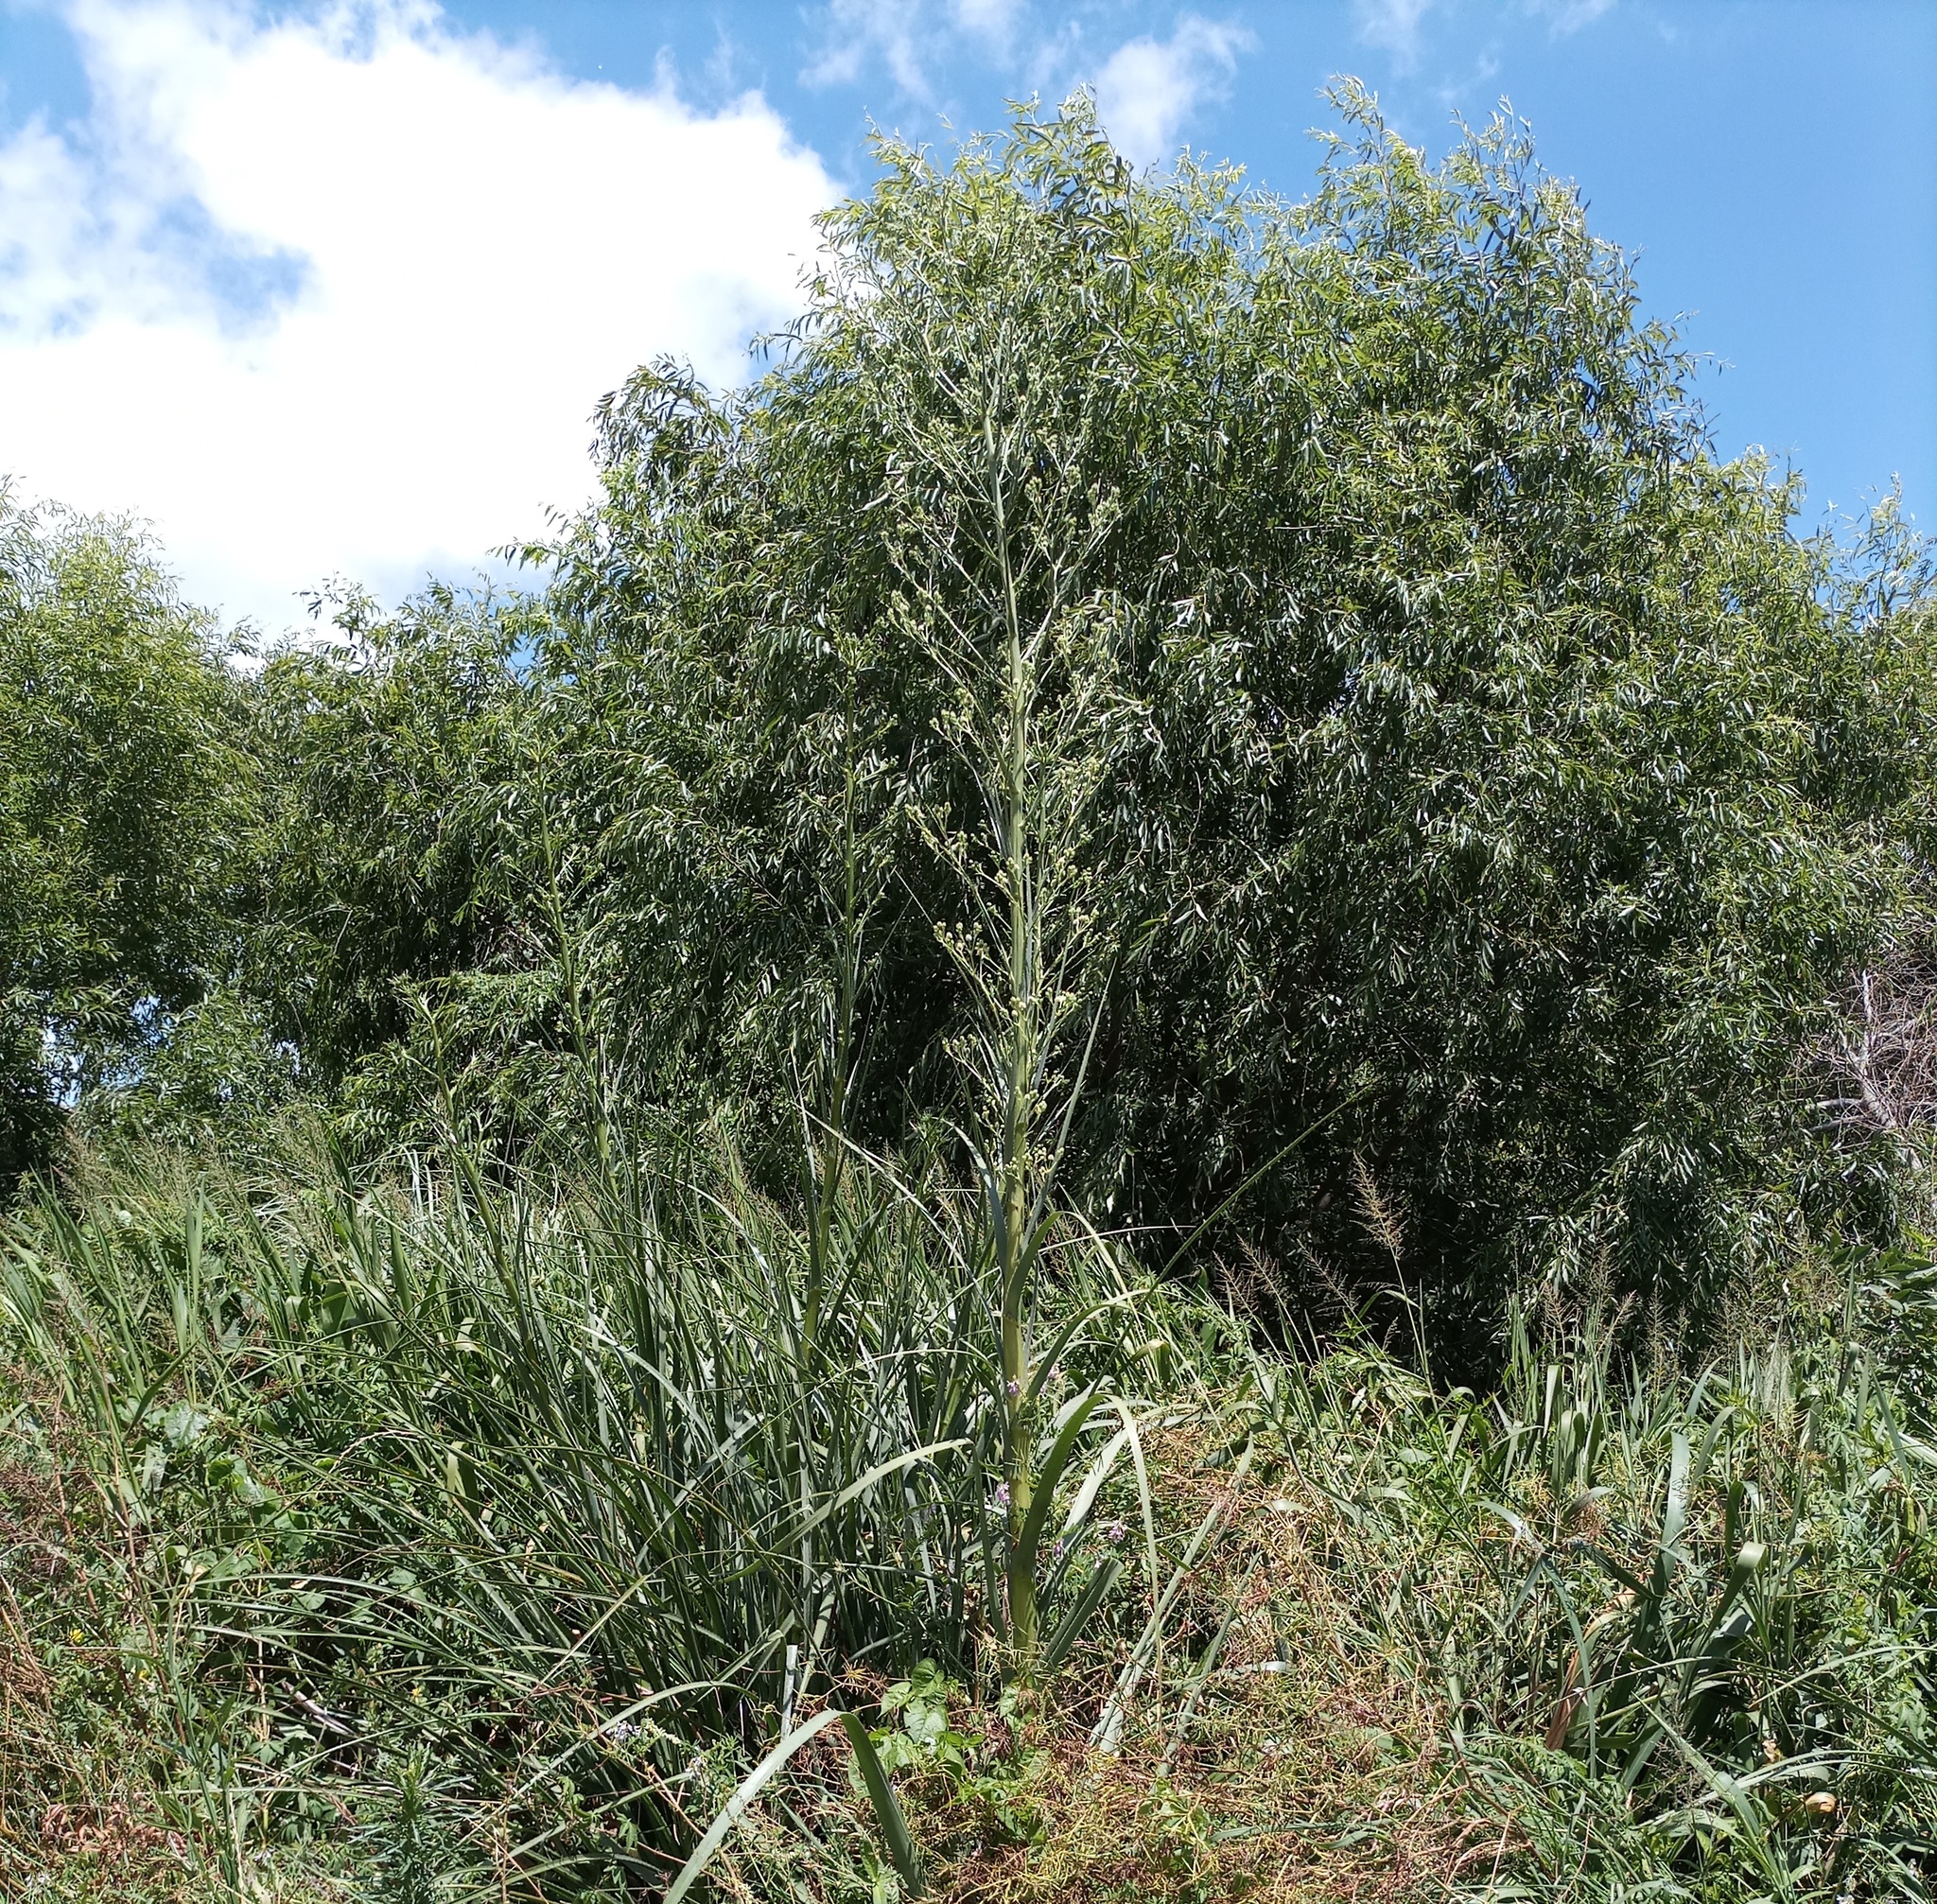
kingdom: Plantae
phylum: Tracheophyta
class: Magnoliopsida
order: Apiales
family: Apiaceae
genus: Eryngium
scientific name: Eryngium pandanifolium
